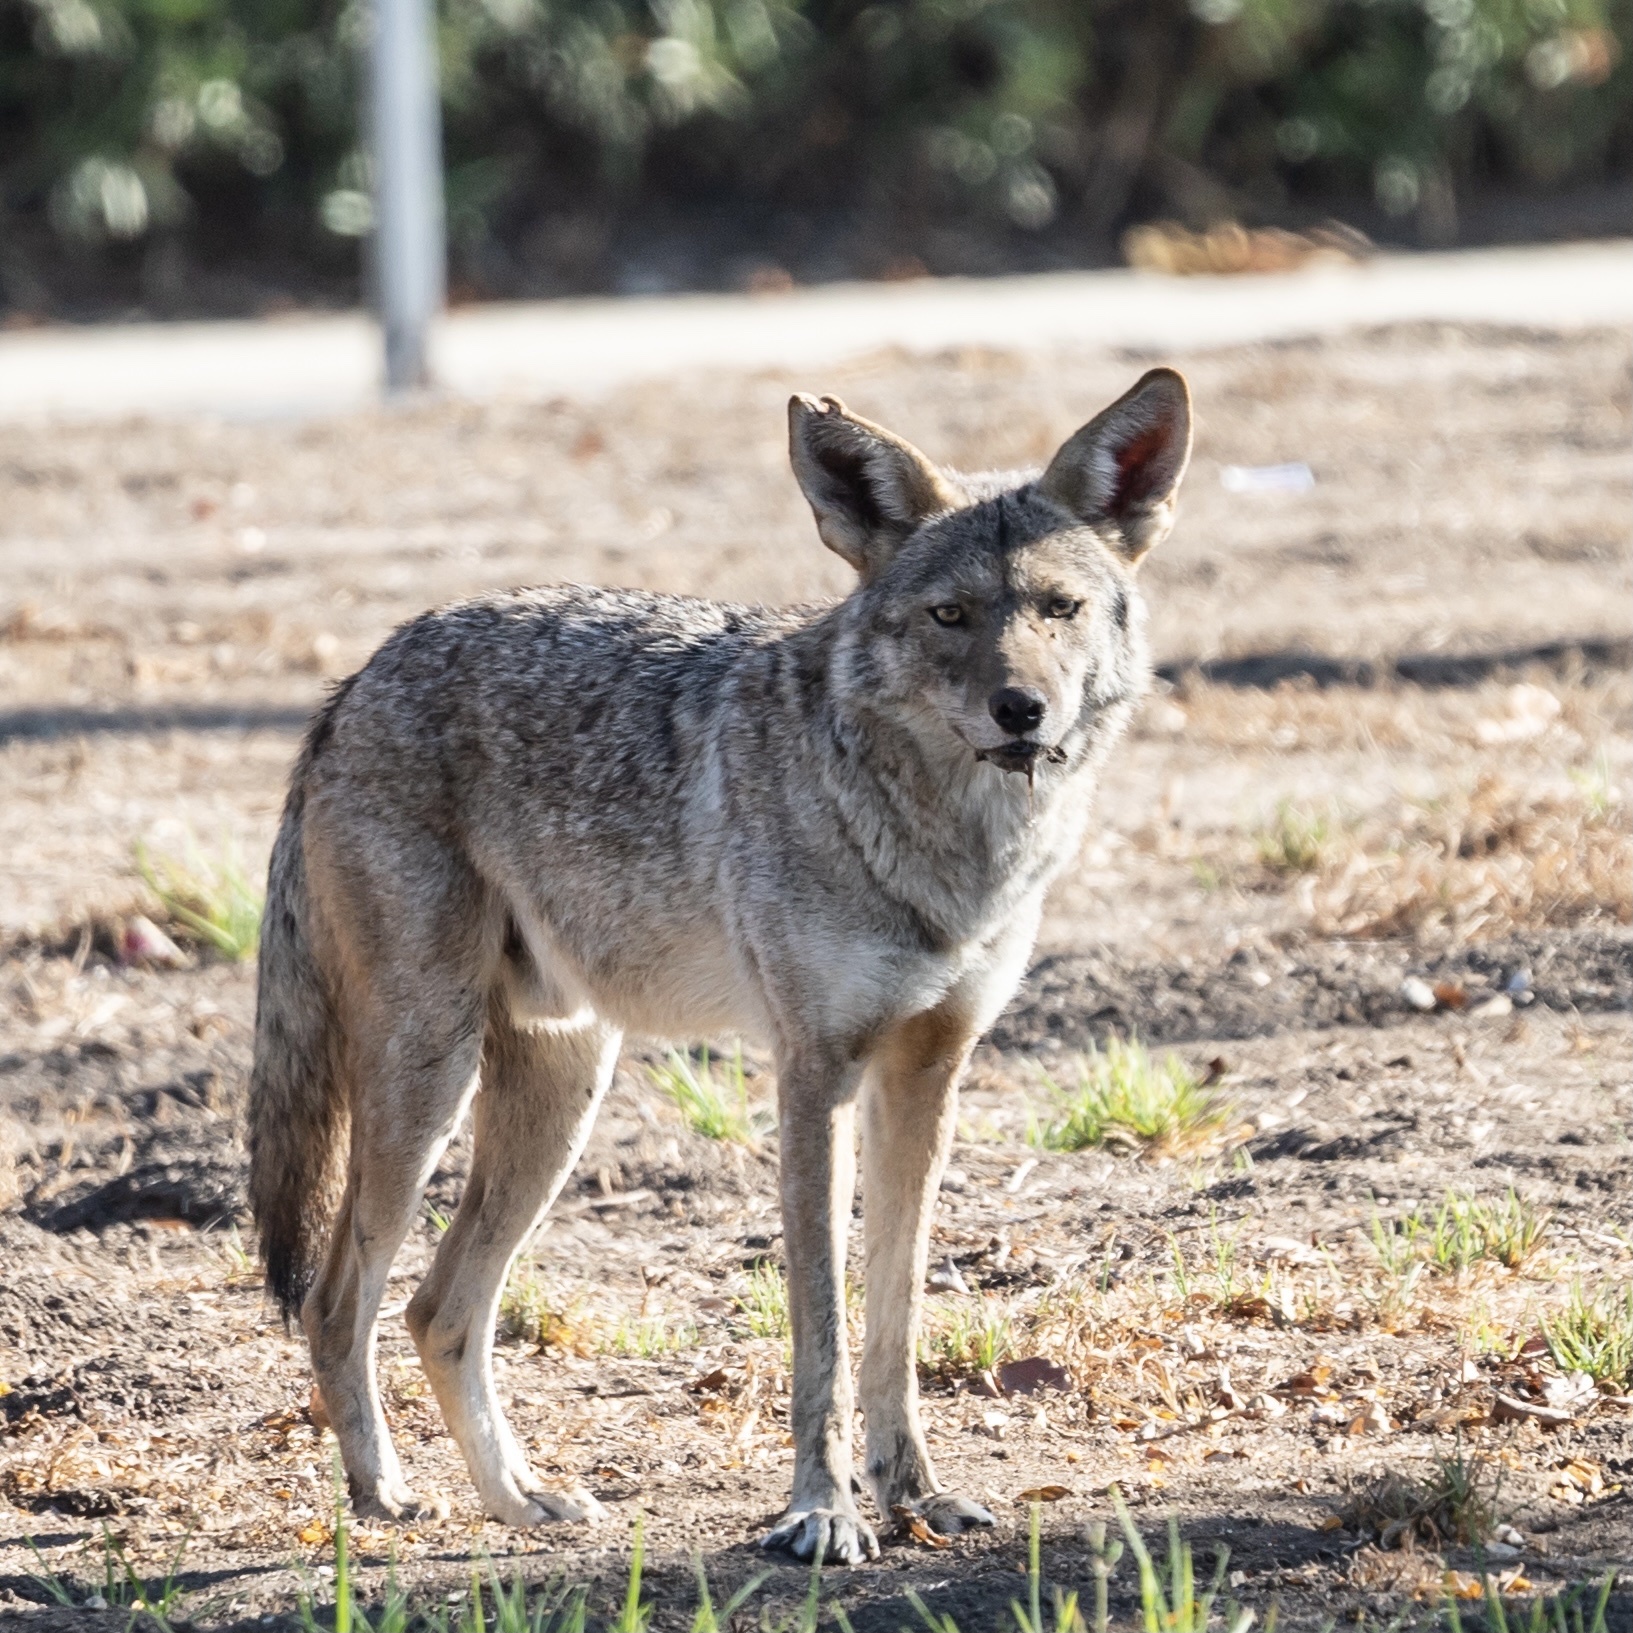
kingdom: Animalia
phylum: Chordata
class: Mammalia
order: Carnivora
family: Canidae
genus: Canis
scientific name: Canis latrans
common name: Coyote
